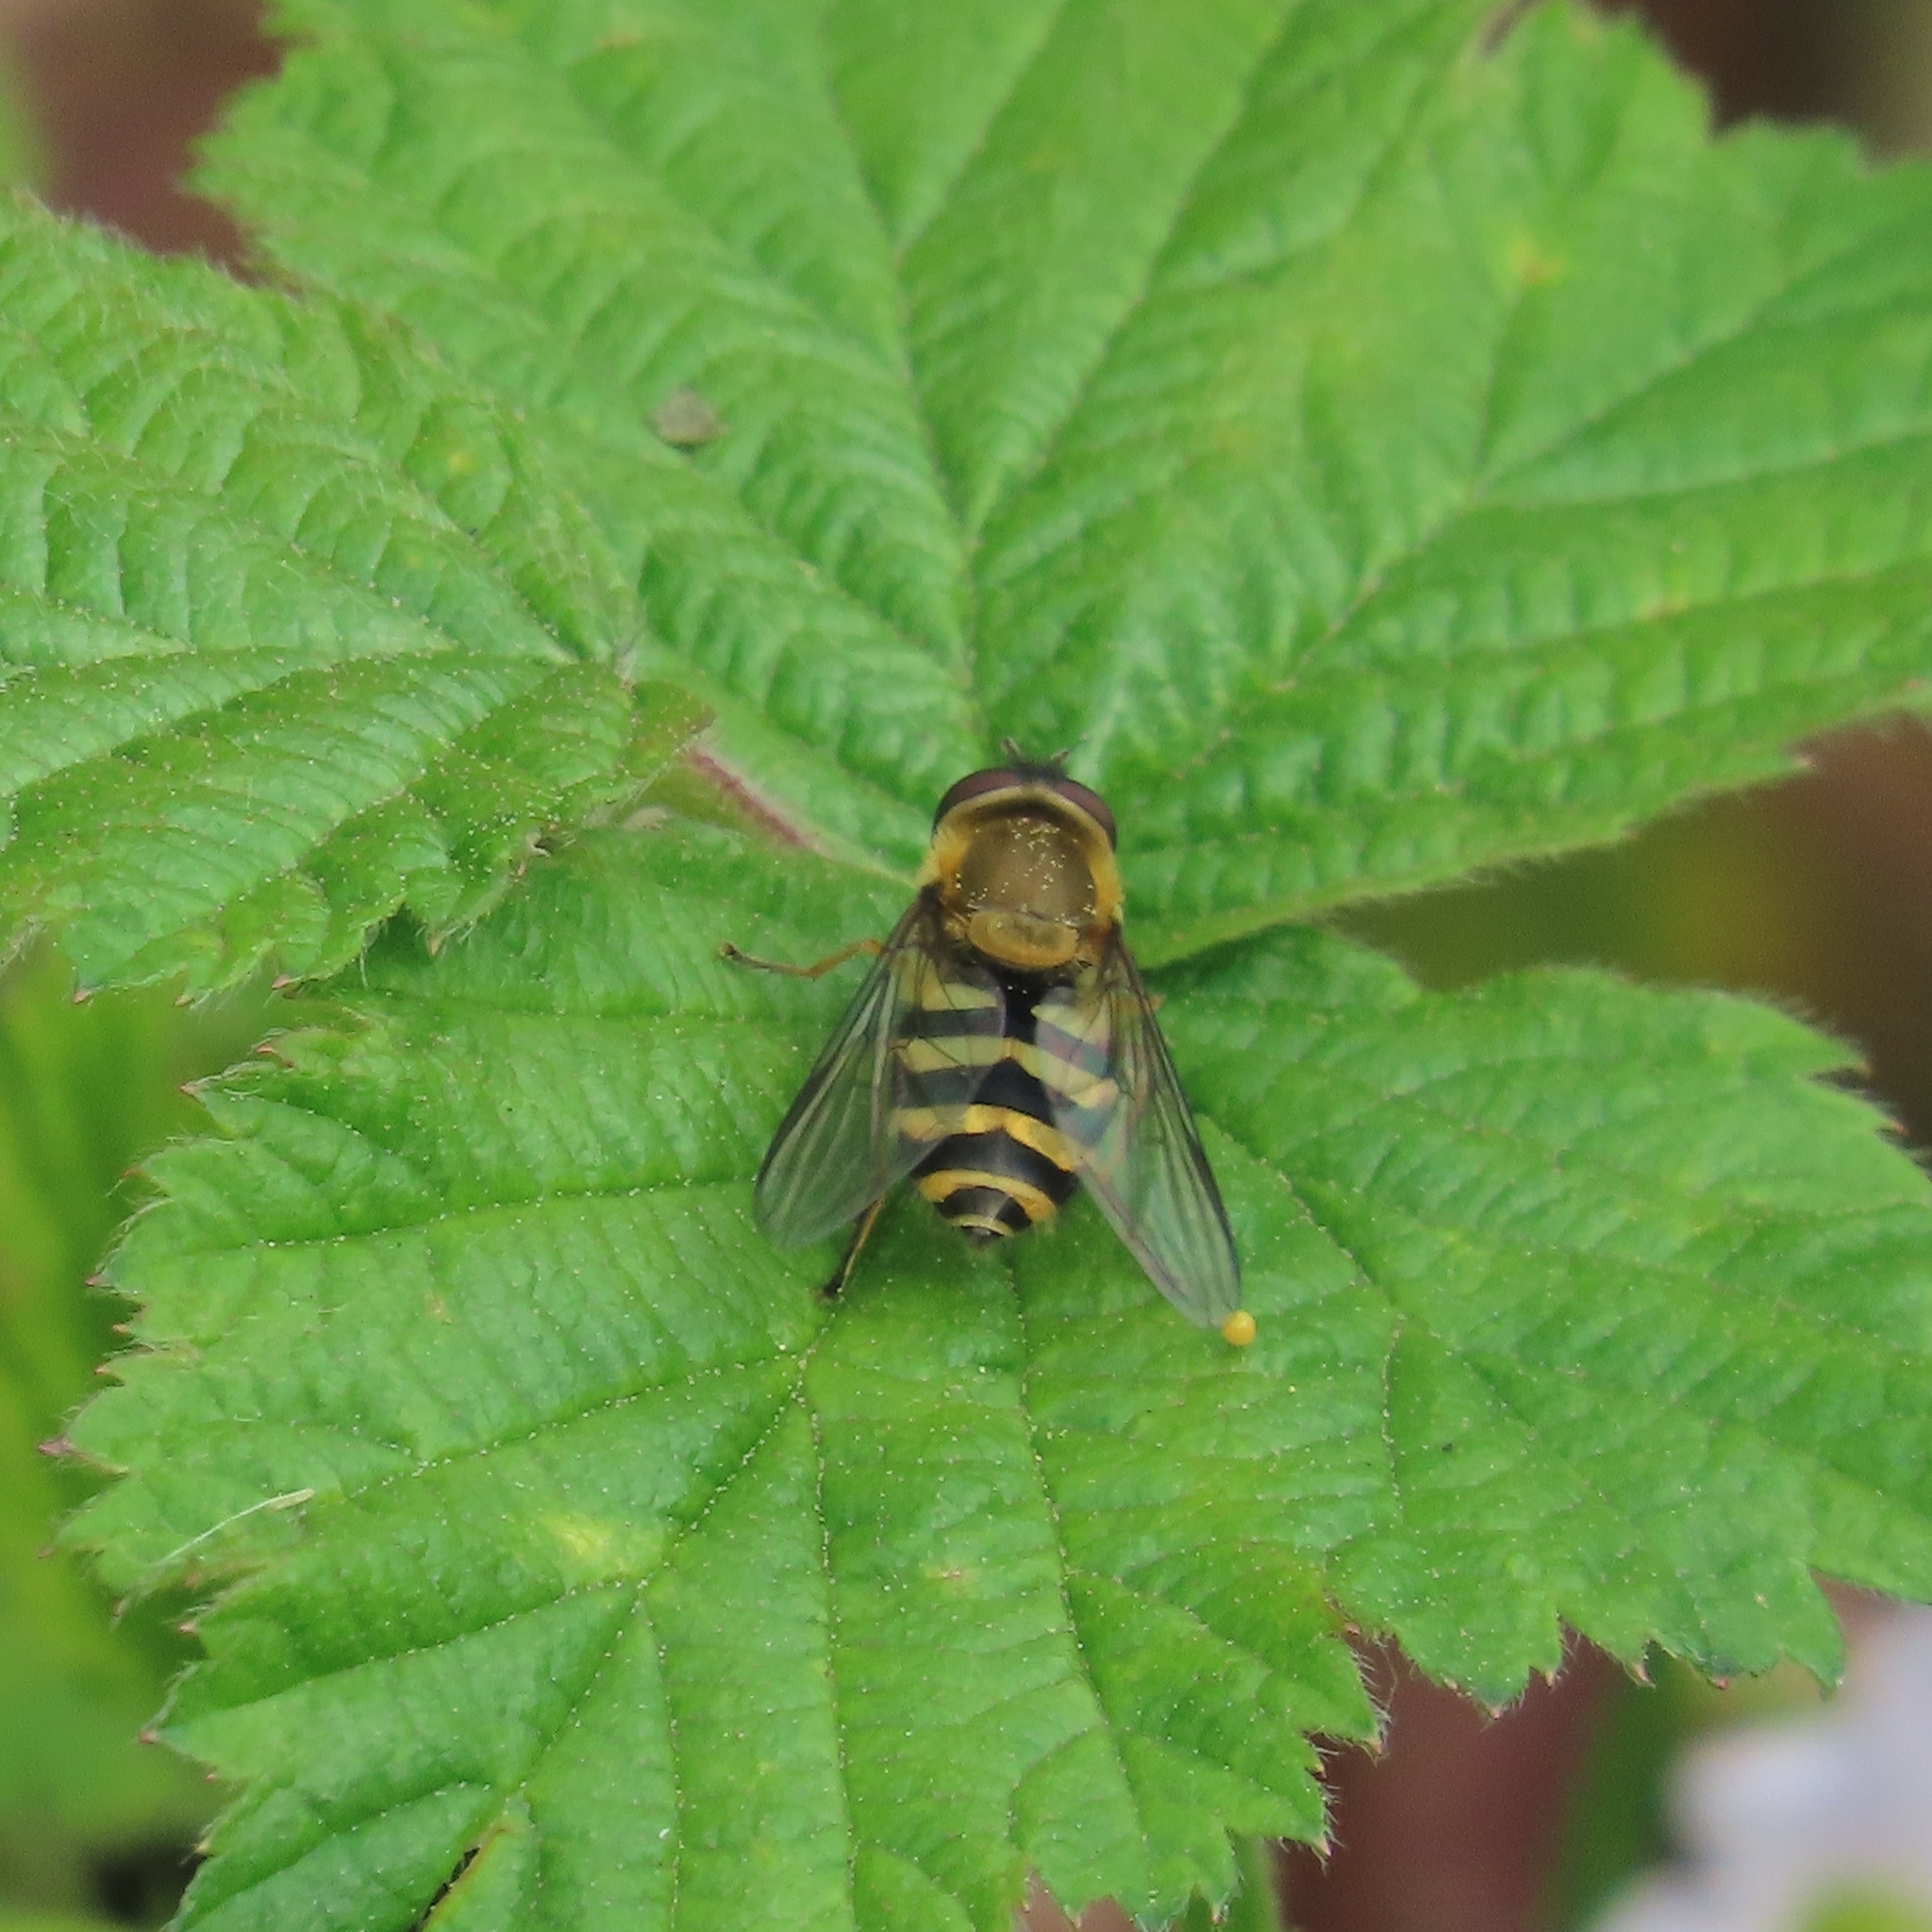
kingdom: Animalia
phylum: Arthropoda
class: Insecta
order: Diptera
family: Syrphidae
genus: Syrphus
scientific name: Syrphus
